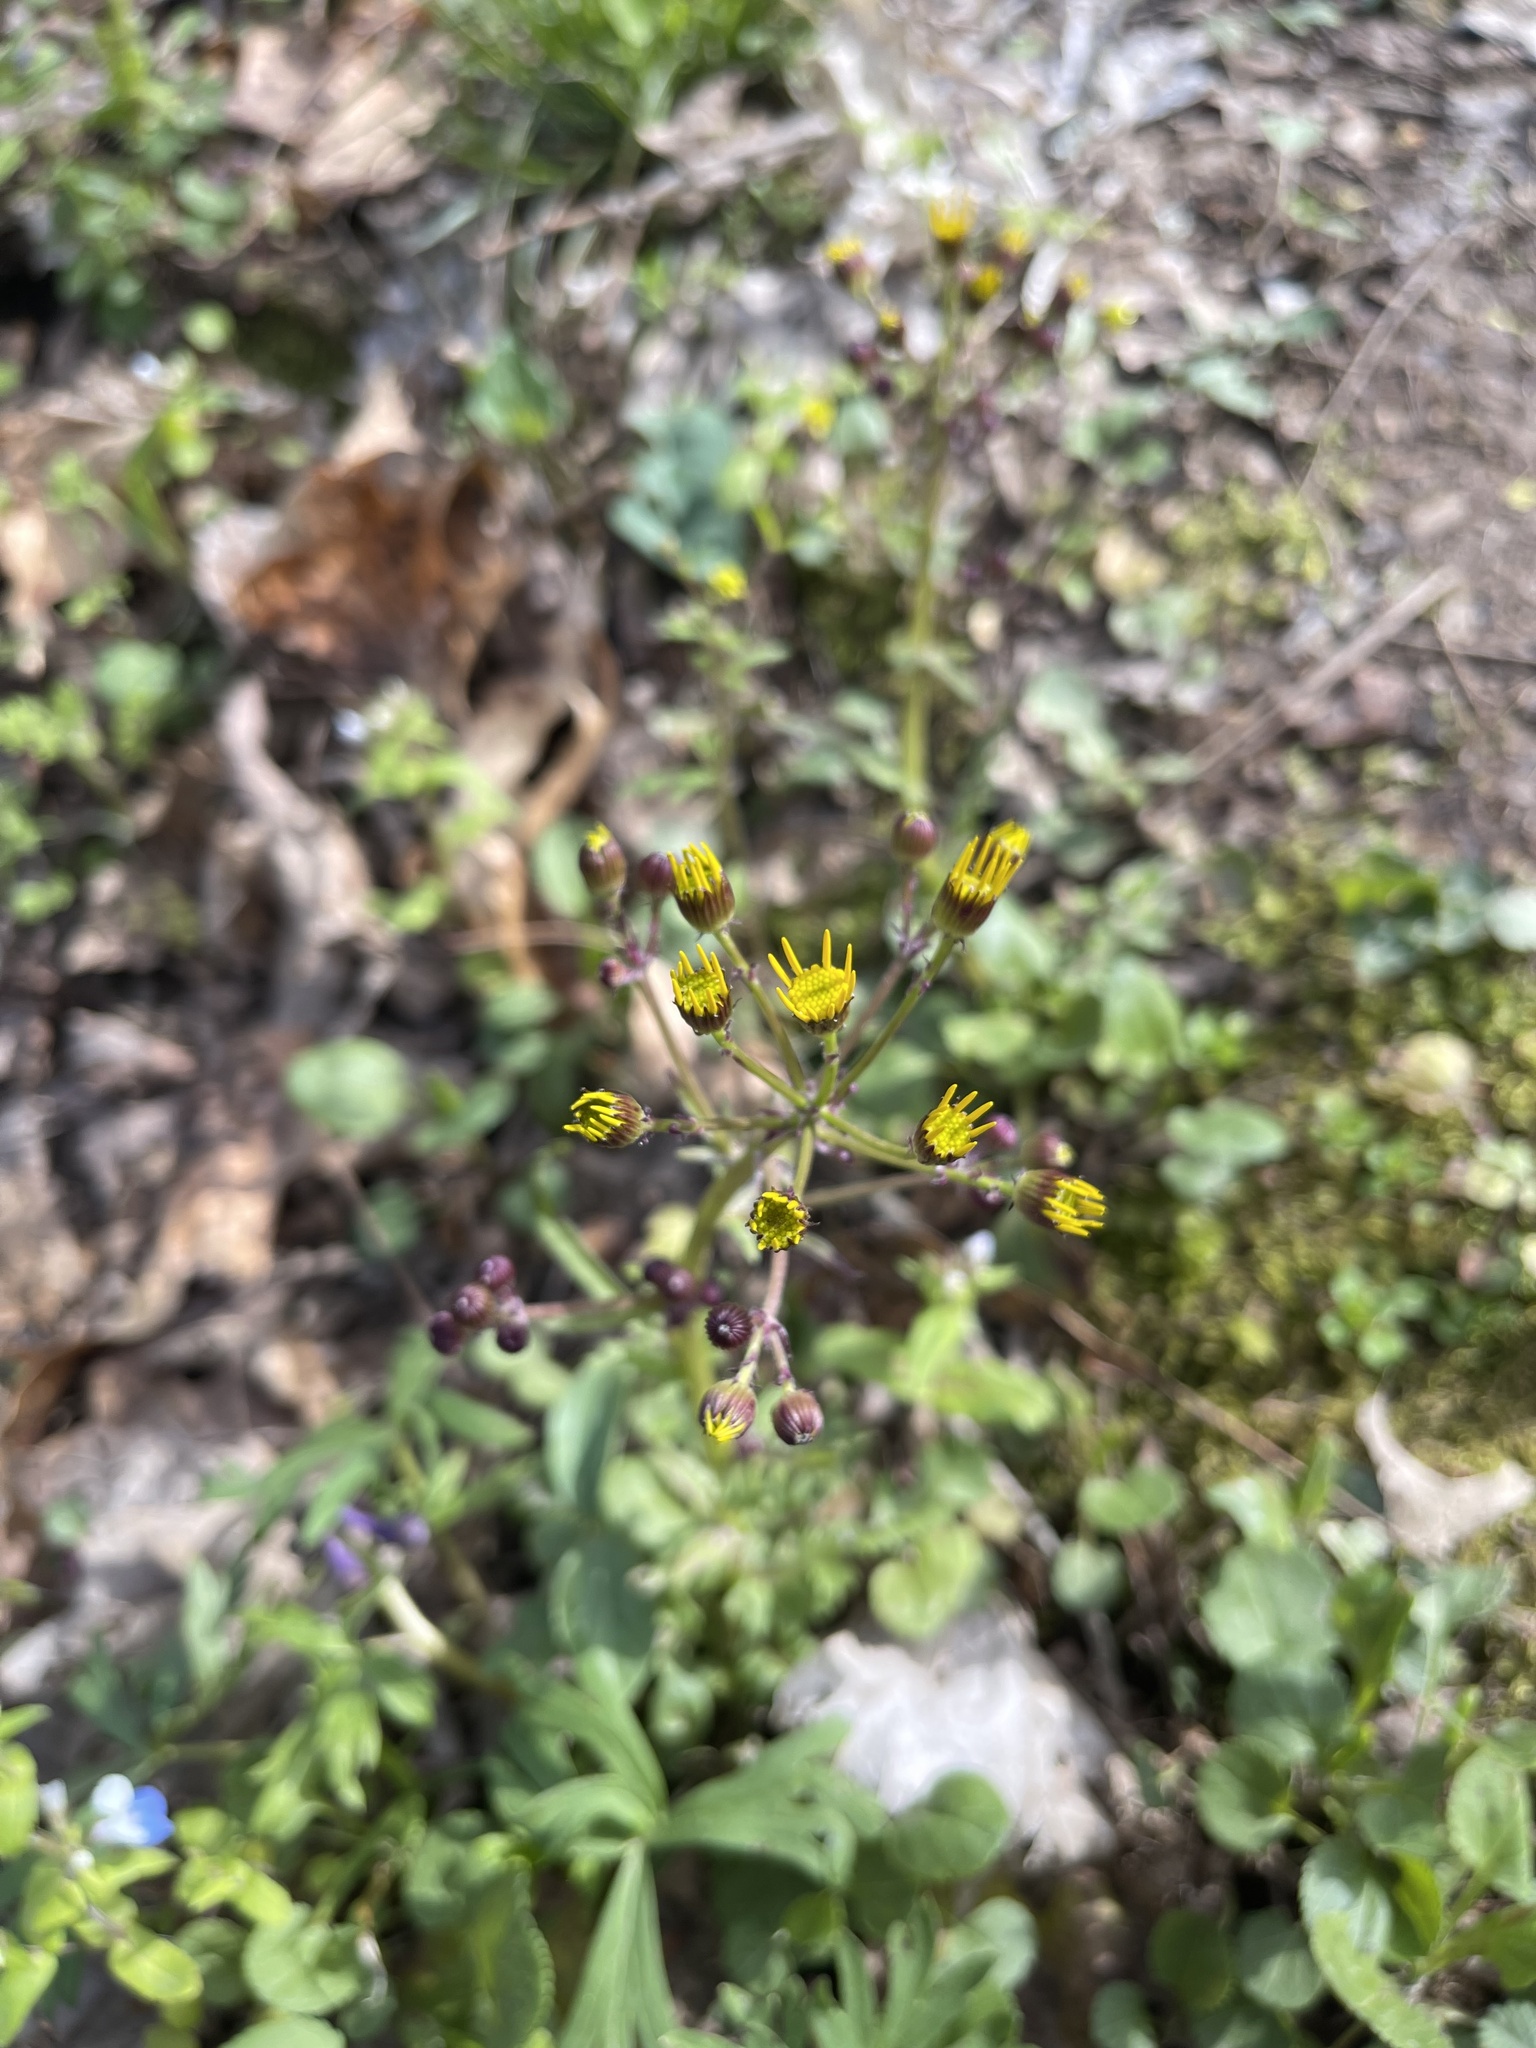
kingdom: Plantae
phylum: Tracheophyta
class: Magnoliopsida
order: Asterales
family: Asteraceae
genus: Packera
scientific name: Packera obovata
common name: Round-leaf ragwort
